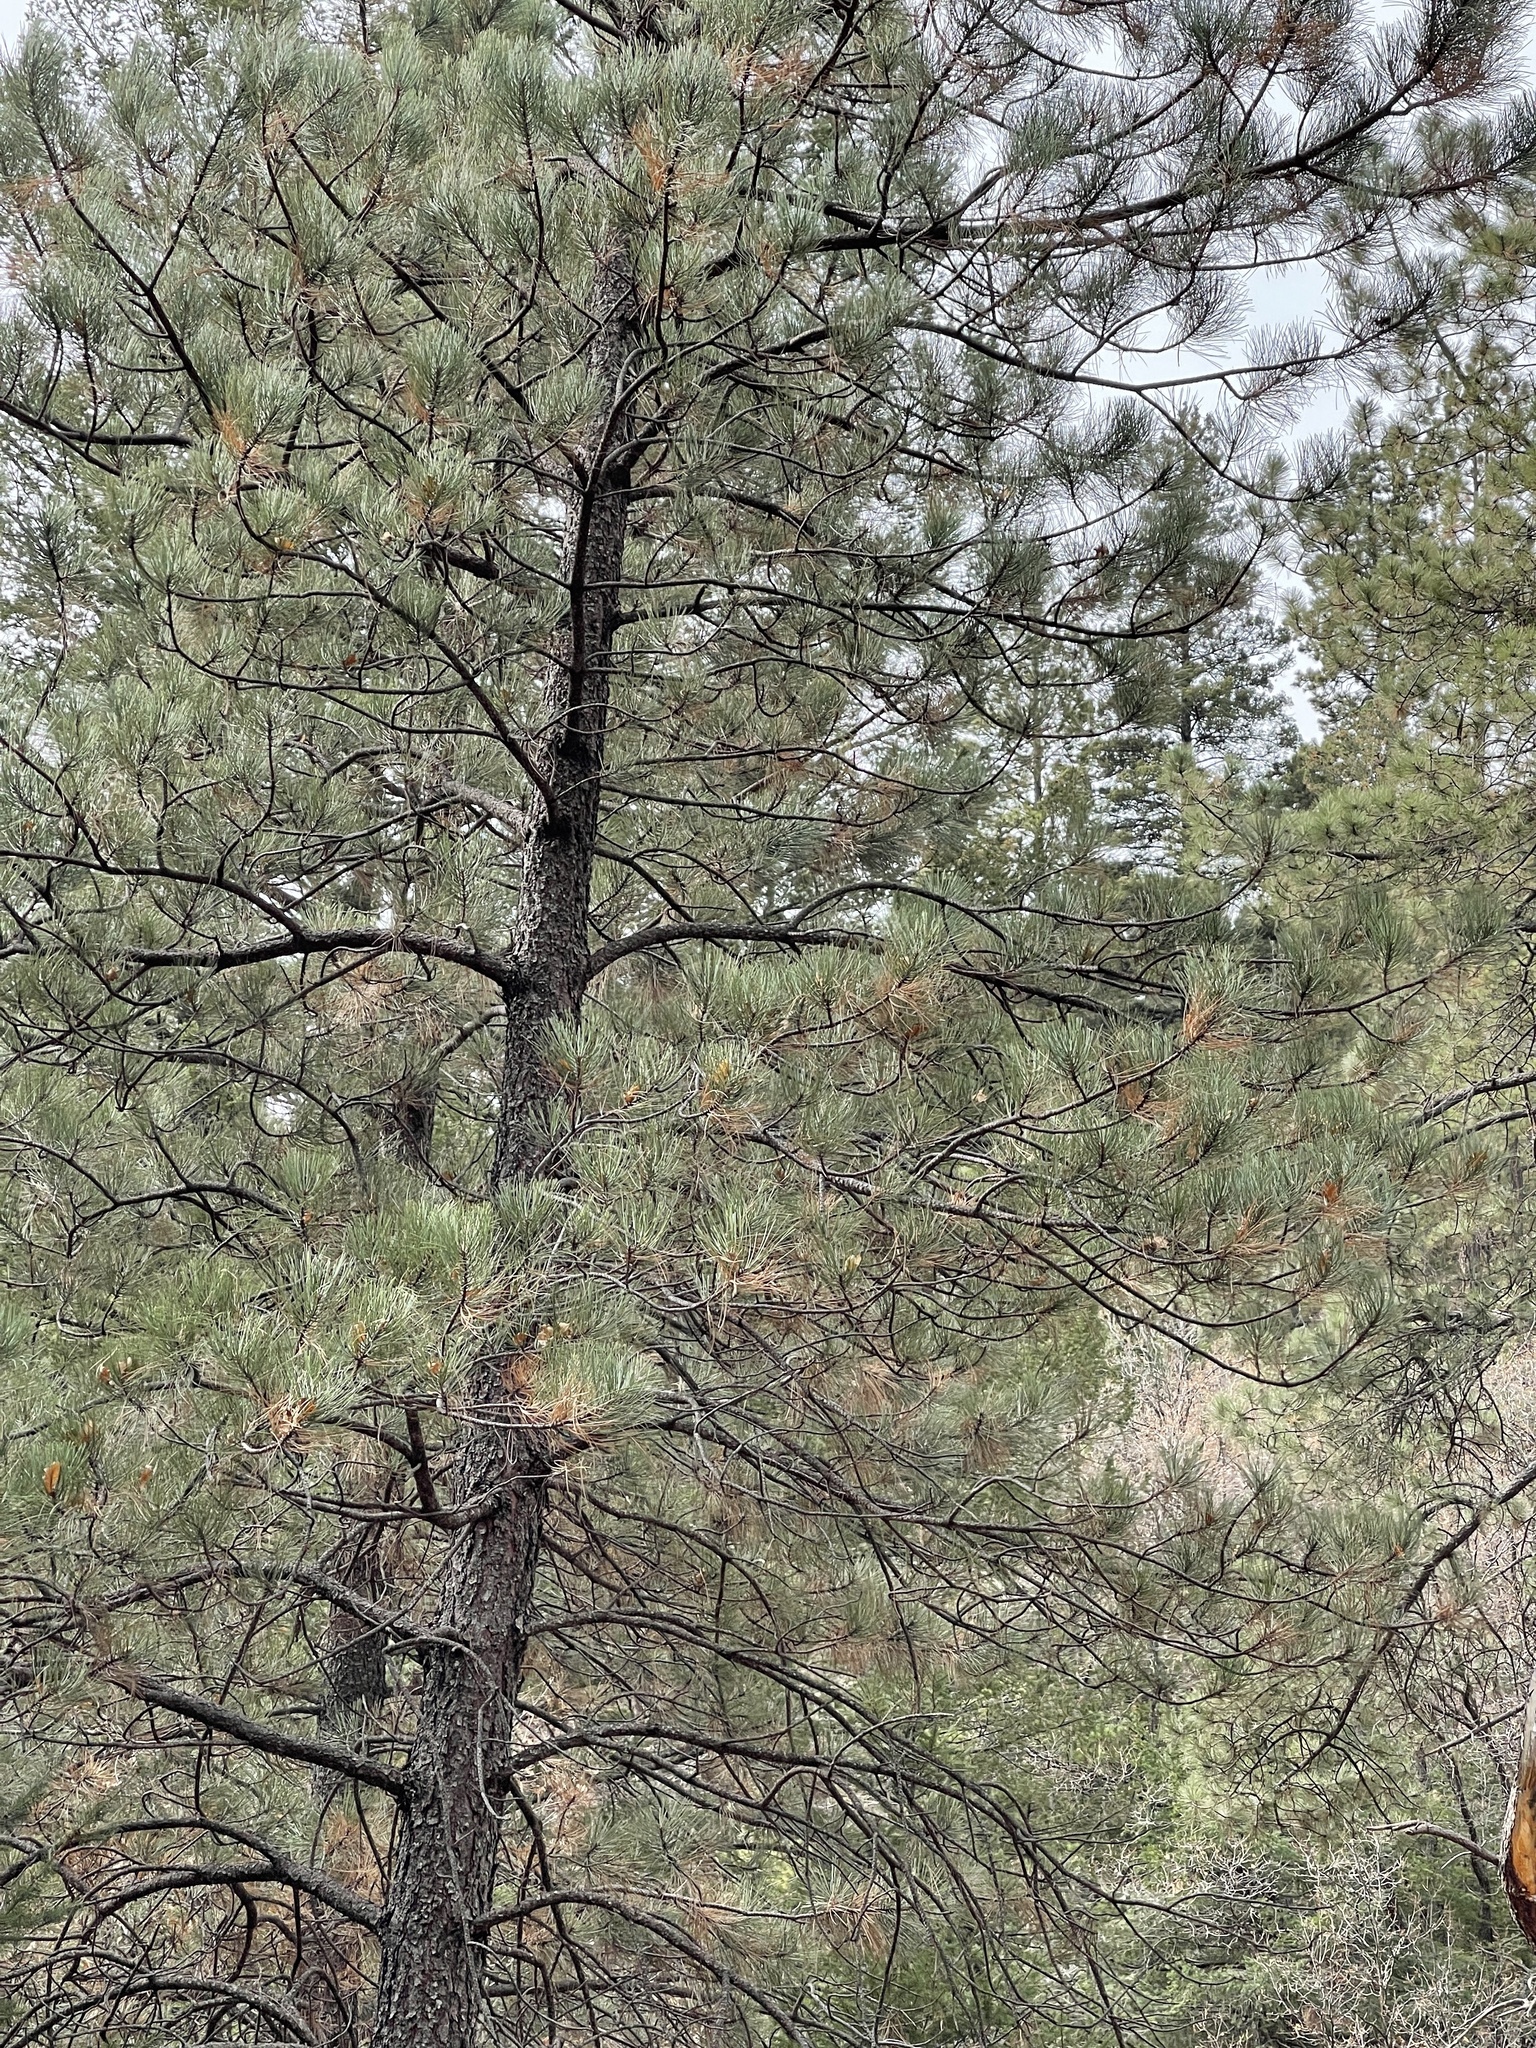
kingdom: Plantae
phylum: Tracheophyta
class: Pinopsida
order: Pinales
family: Pinaceae
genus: Pinus
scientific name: Pinus ponderosa
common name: Western yellow-pine
